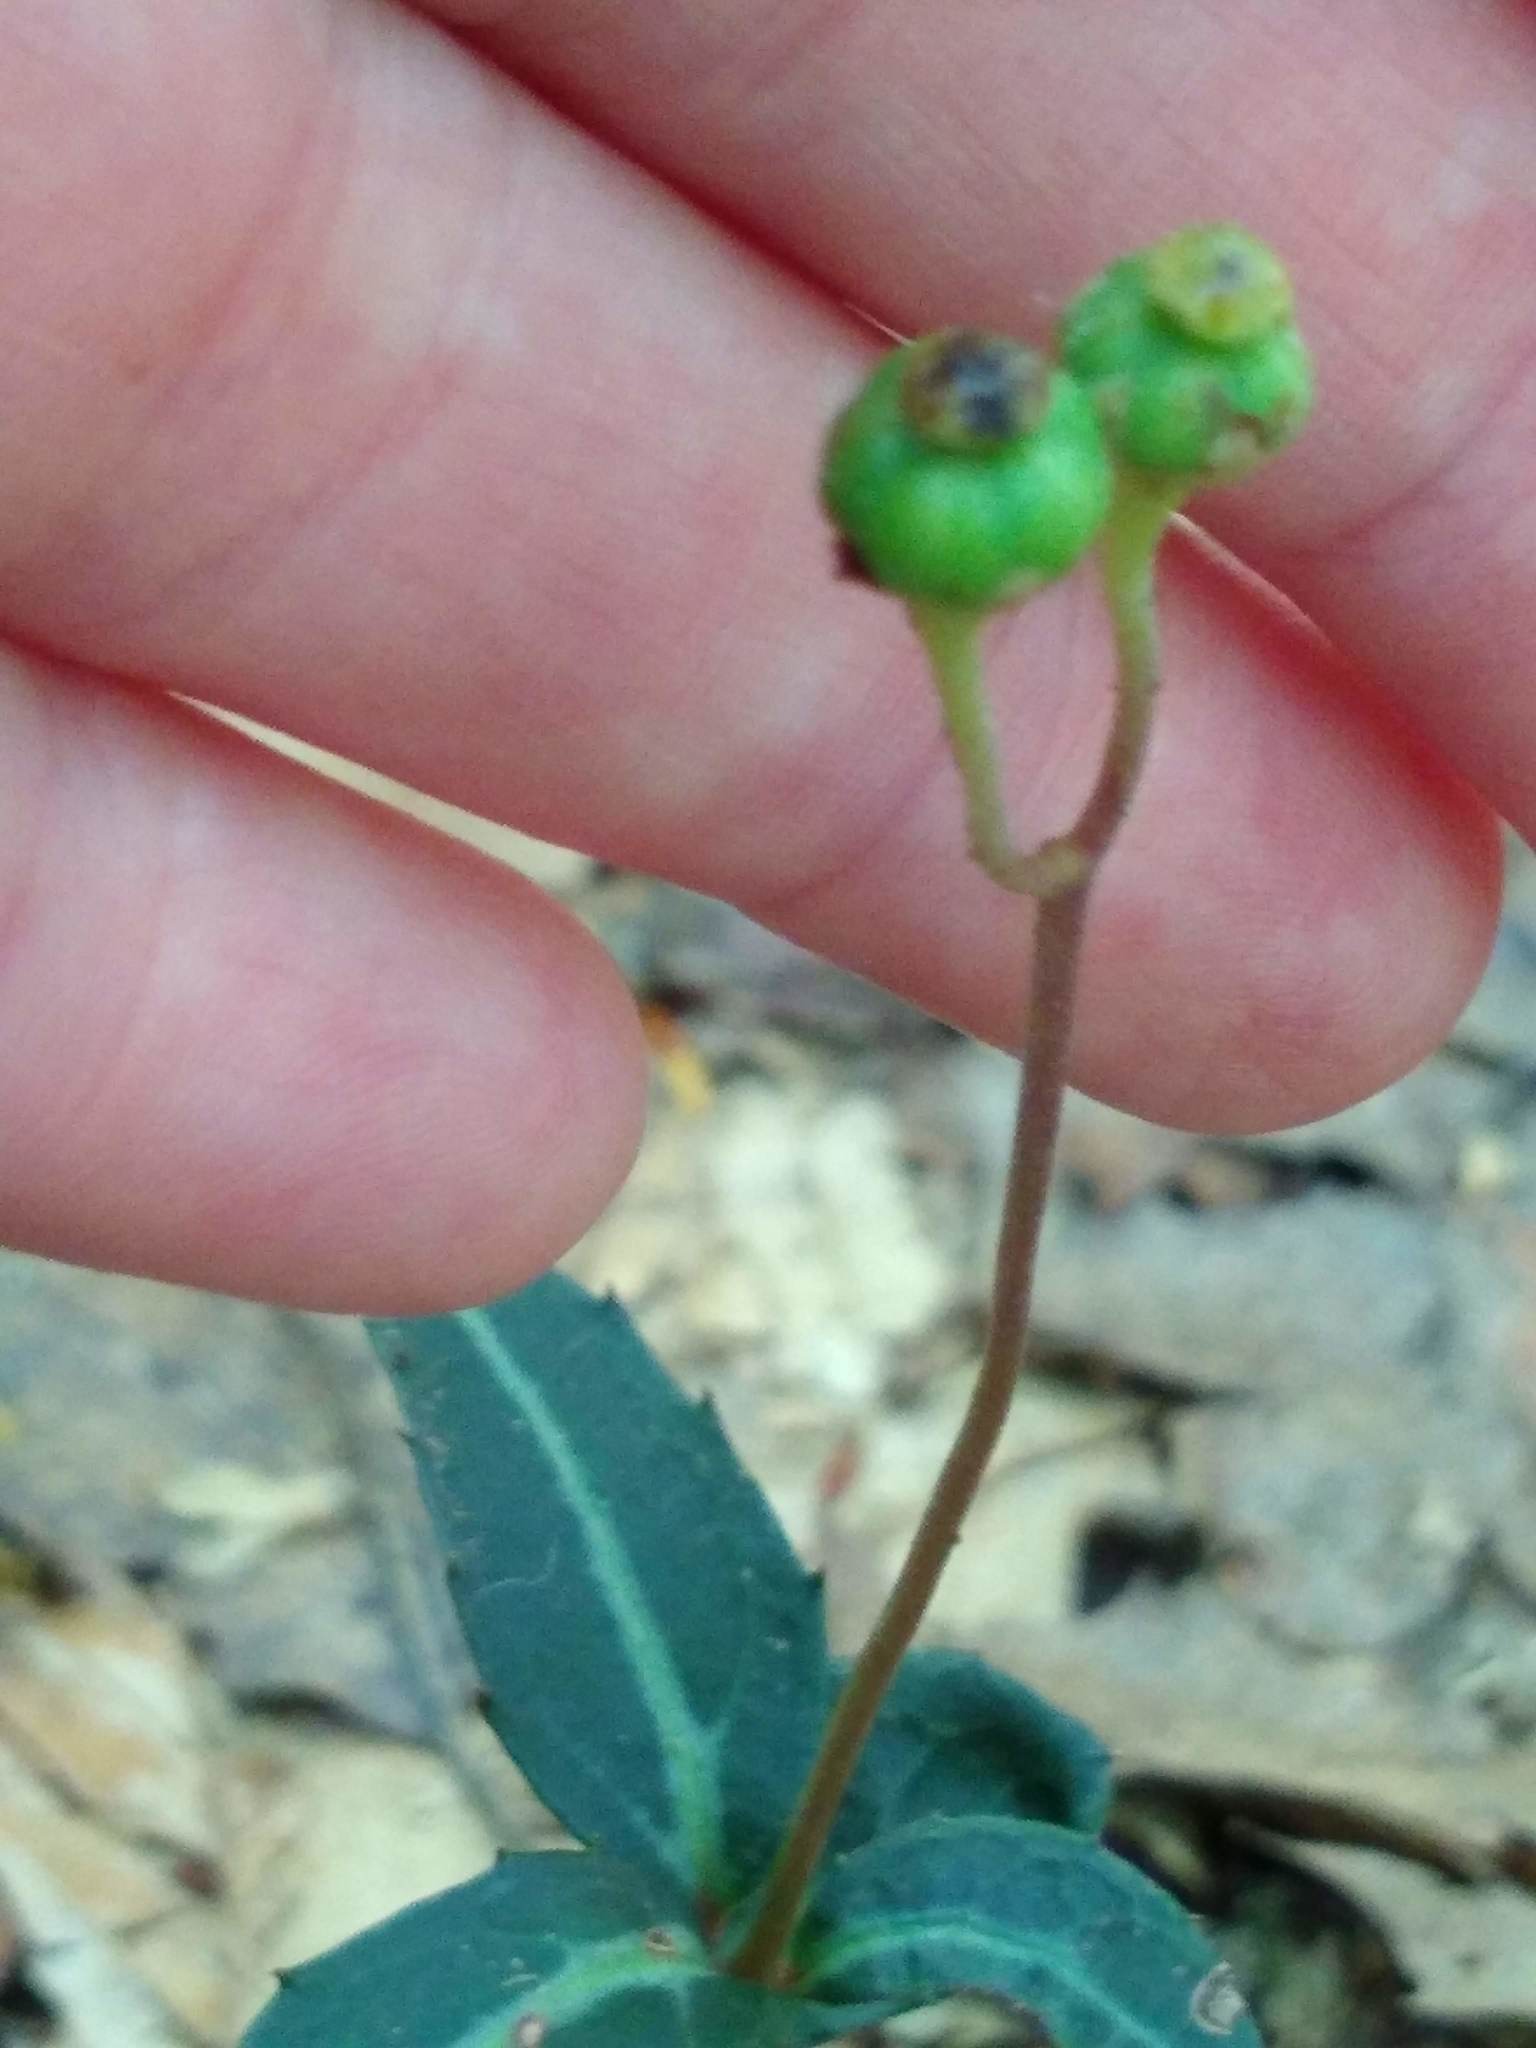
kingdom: Plantae
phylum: Tracheophyta
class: Magnoliopsida
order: Ericales
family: Ericaceae
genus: Chimaphila
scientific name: Chimaphila maculata
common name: Spotted pipsissewa
